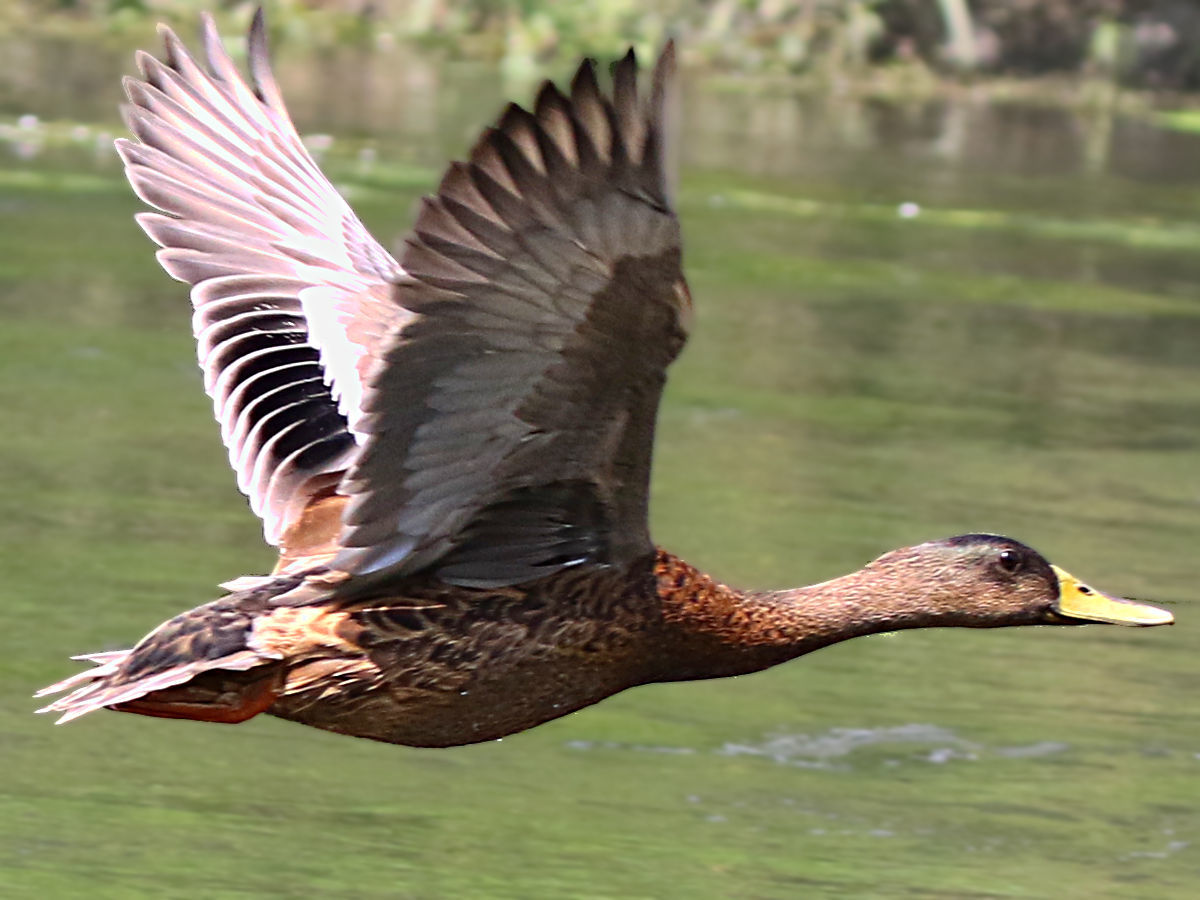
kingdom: Animalia
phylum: Chordata
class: Aves
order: Anseriformes
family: Anatidae
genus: Anas
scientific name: Anas platyrhynchos
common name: Mallard
